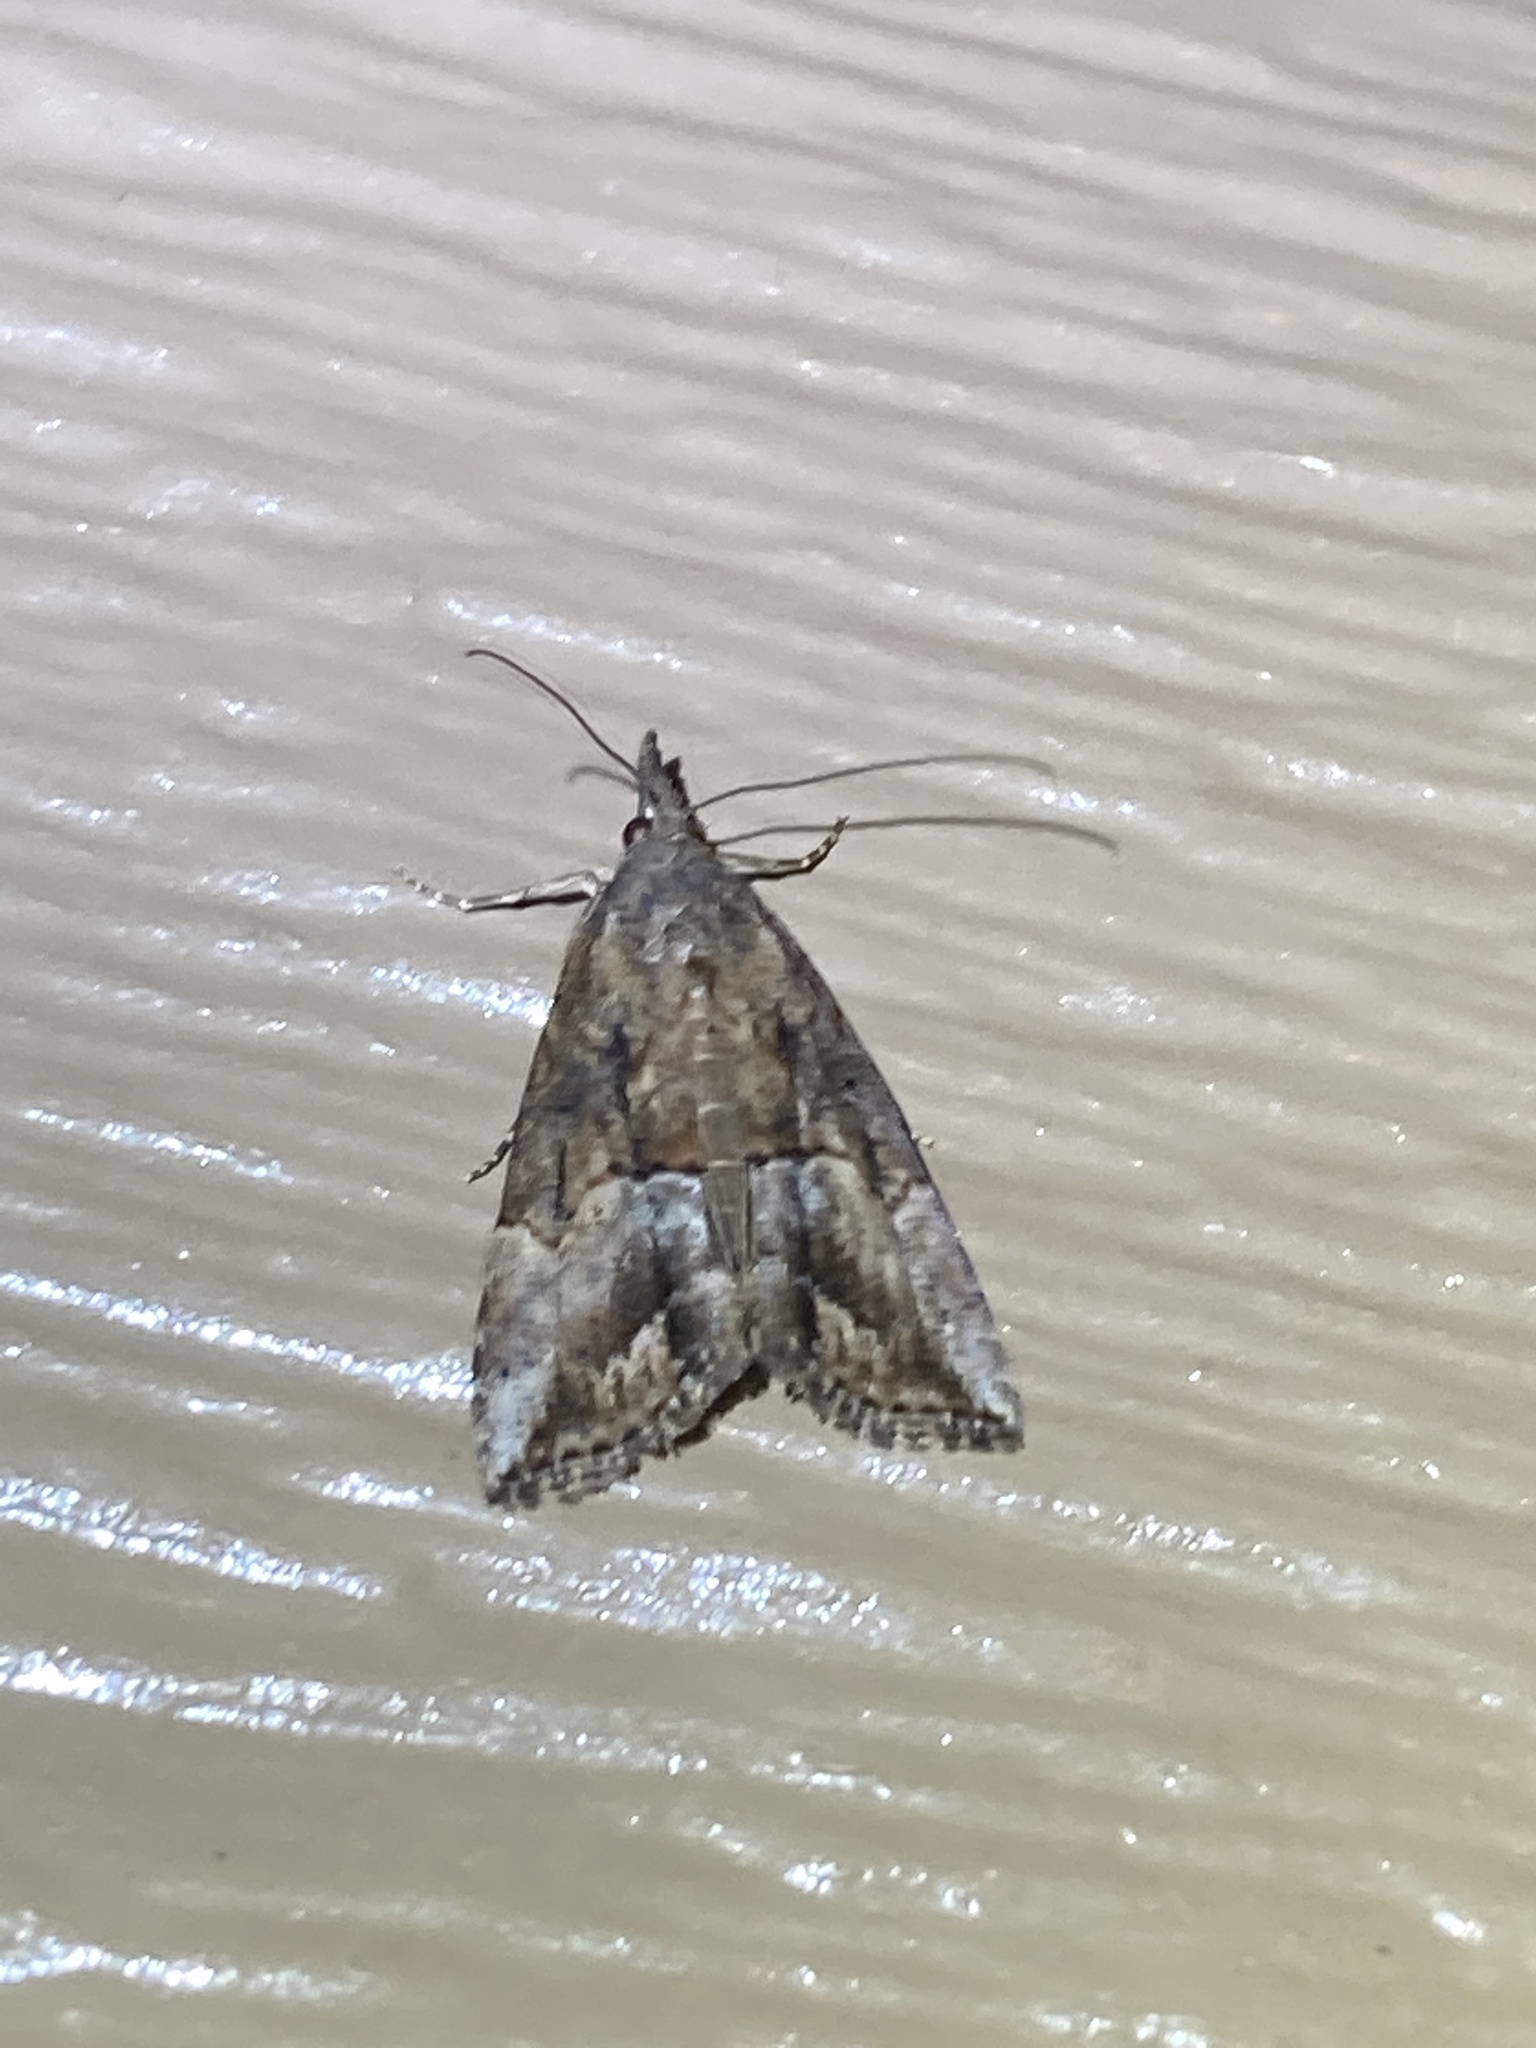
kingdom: Animalia
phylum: Arthropoda
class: Insecta
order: Lepidoptera
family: Erebidae
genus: Hypena
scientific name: Hypena scabra
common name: Green cloverworm
